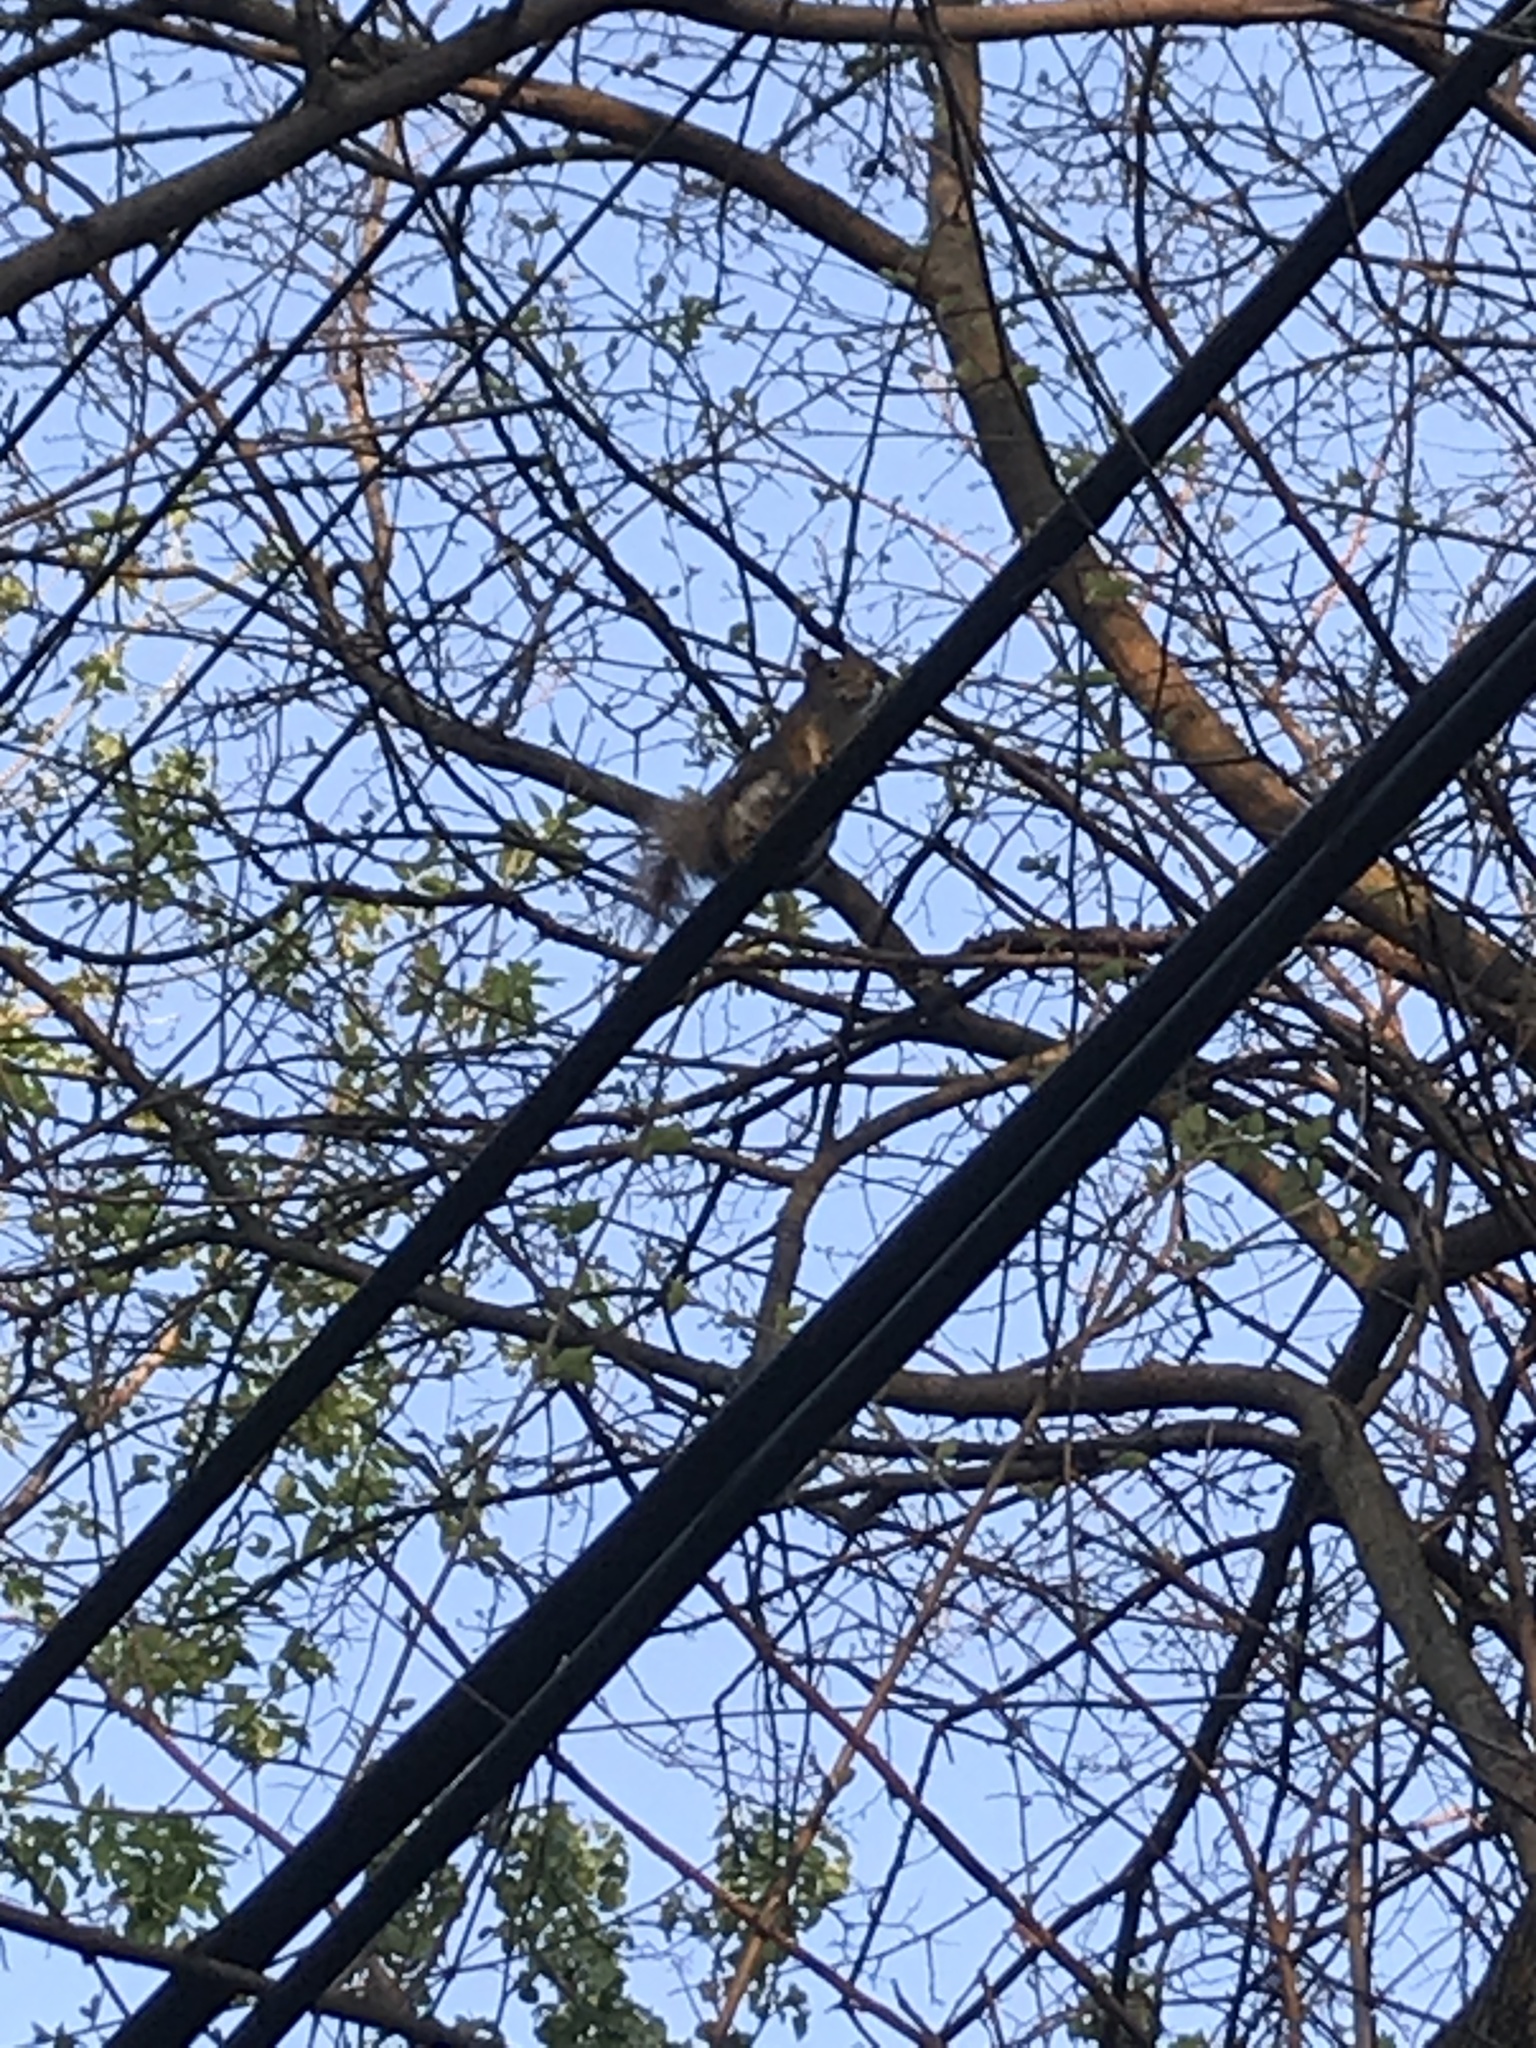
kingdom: Animalia
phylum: Chordata
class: Mammalia
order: Rodentia
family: Sciuridae
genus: Tamiasciurus
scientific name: Tamiasciurus hudsonicus
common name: Red squirrel
